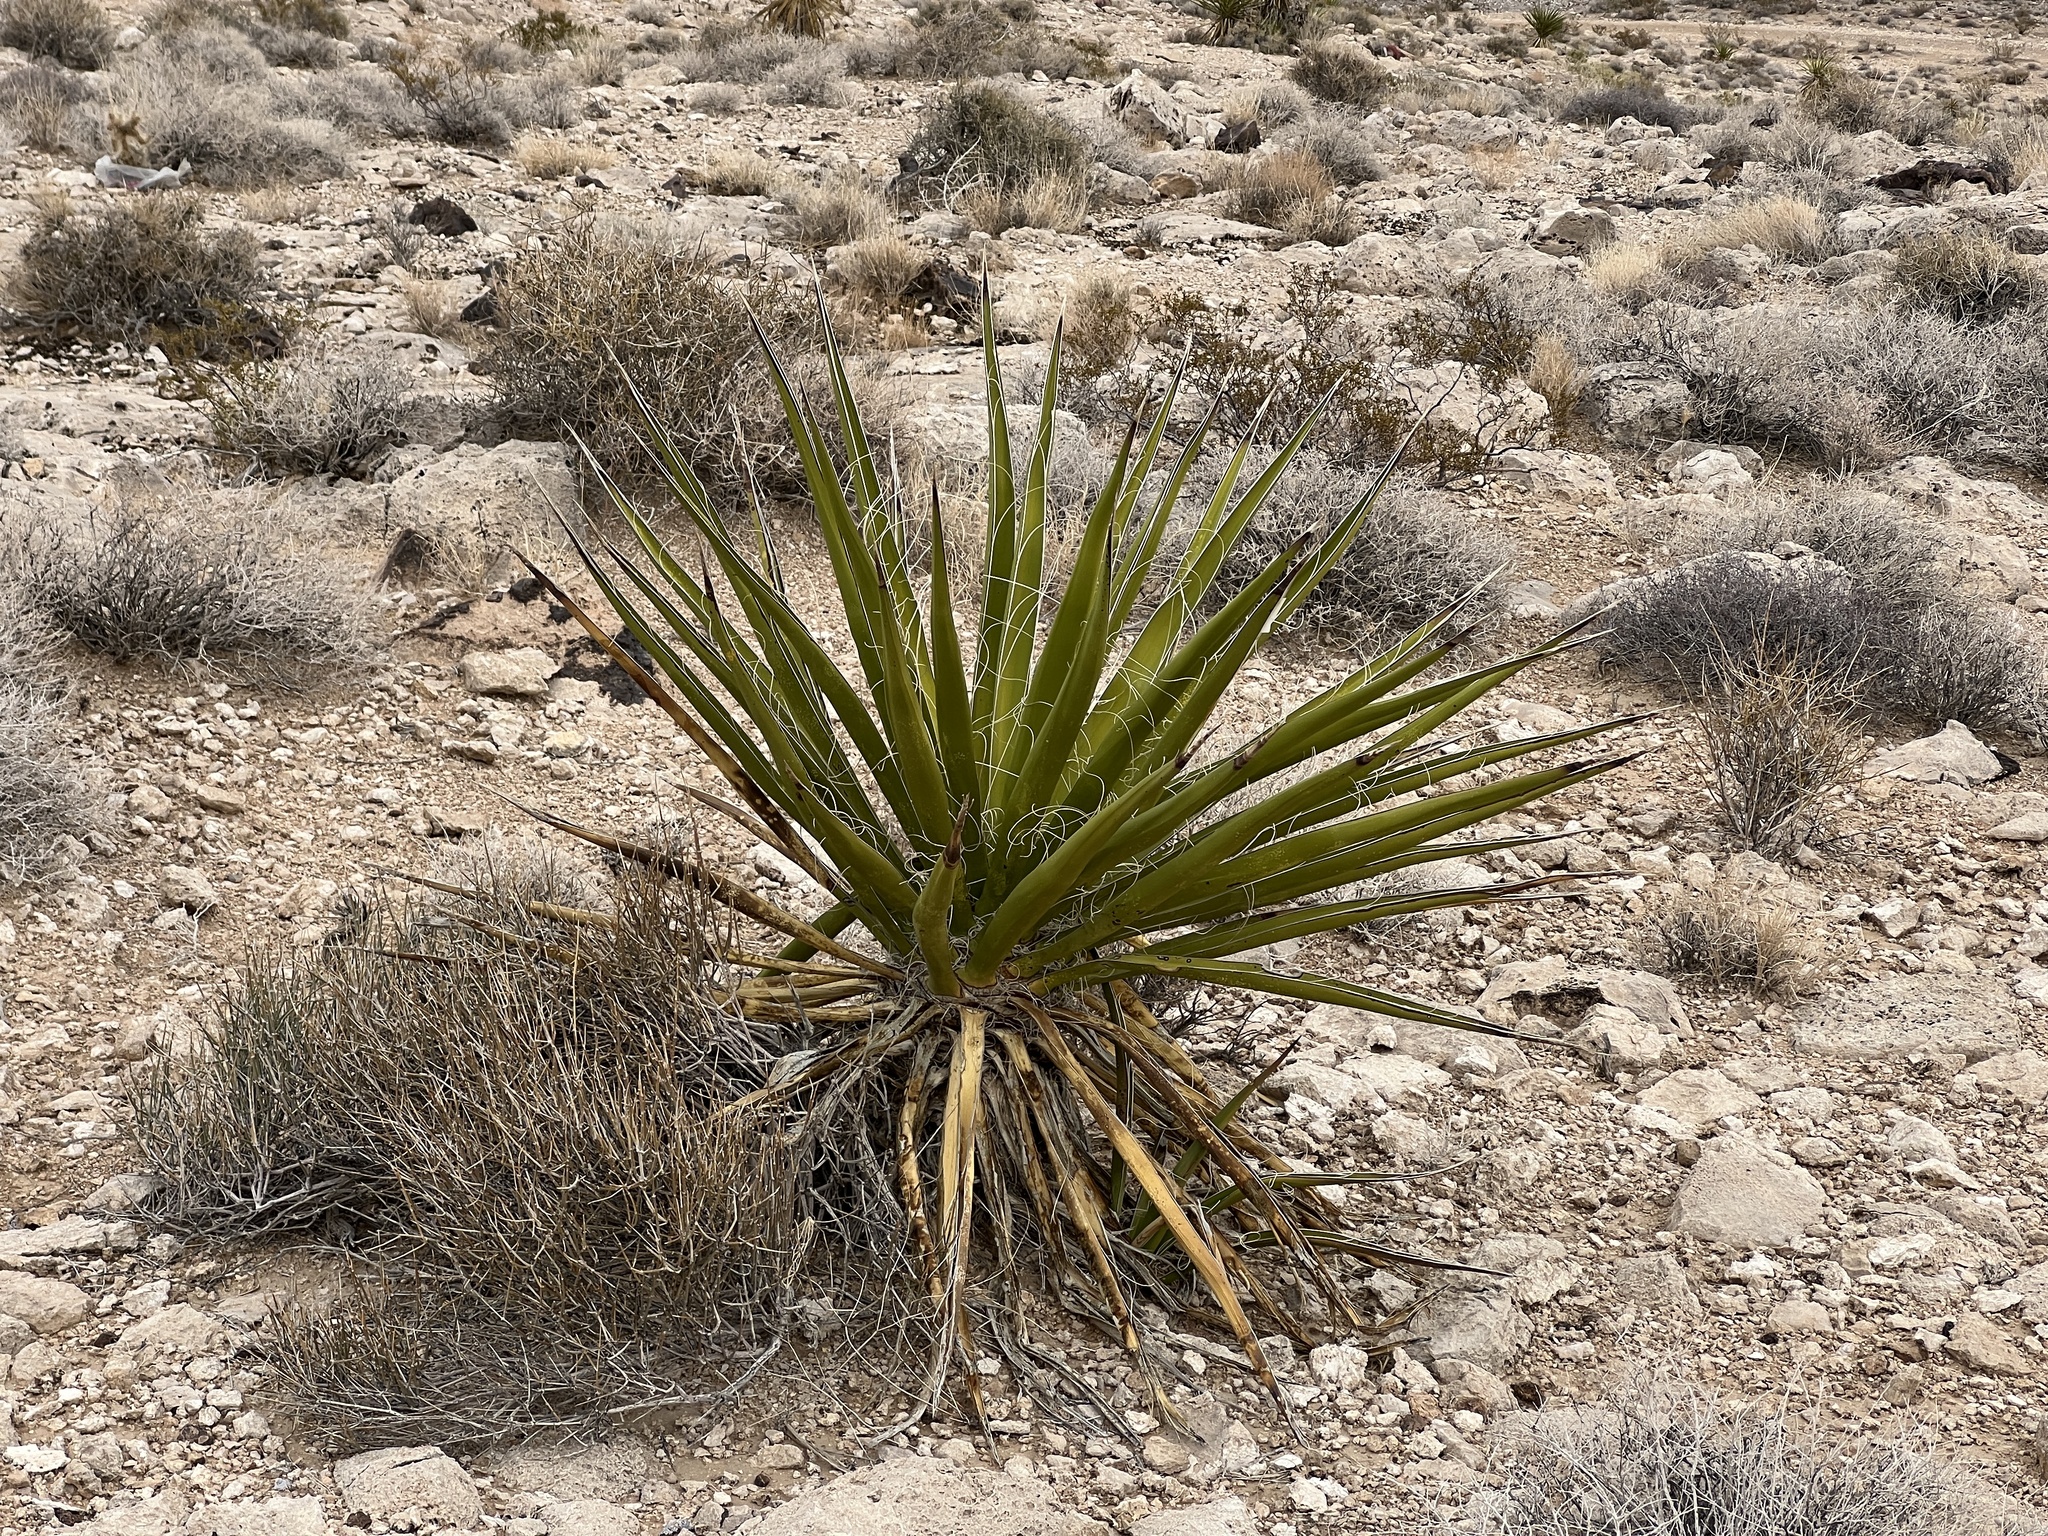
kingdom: Plantae
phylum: Tracheophyta
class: Liliopsida
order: Asparagales
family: Asparagaceae
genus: Yucca
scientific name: Yucca schidigera
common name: Mojave yucca
